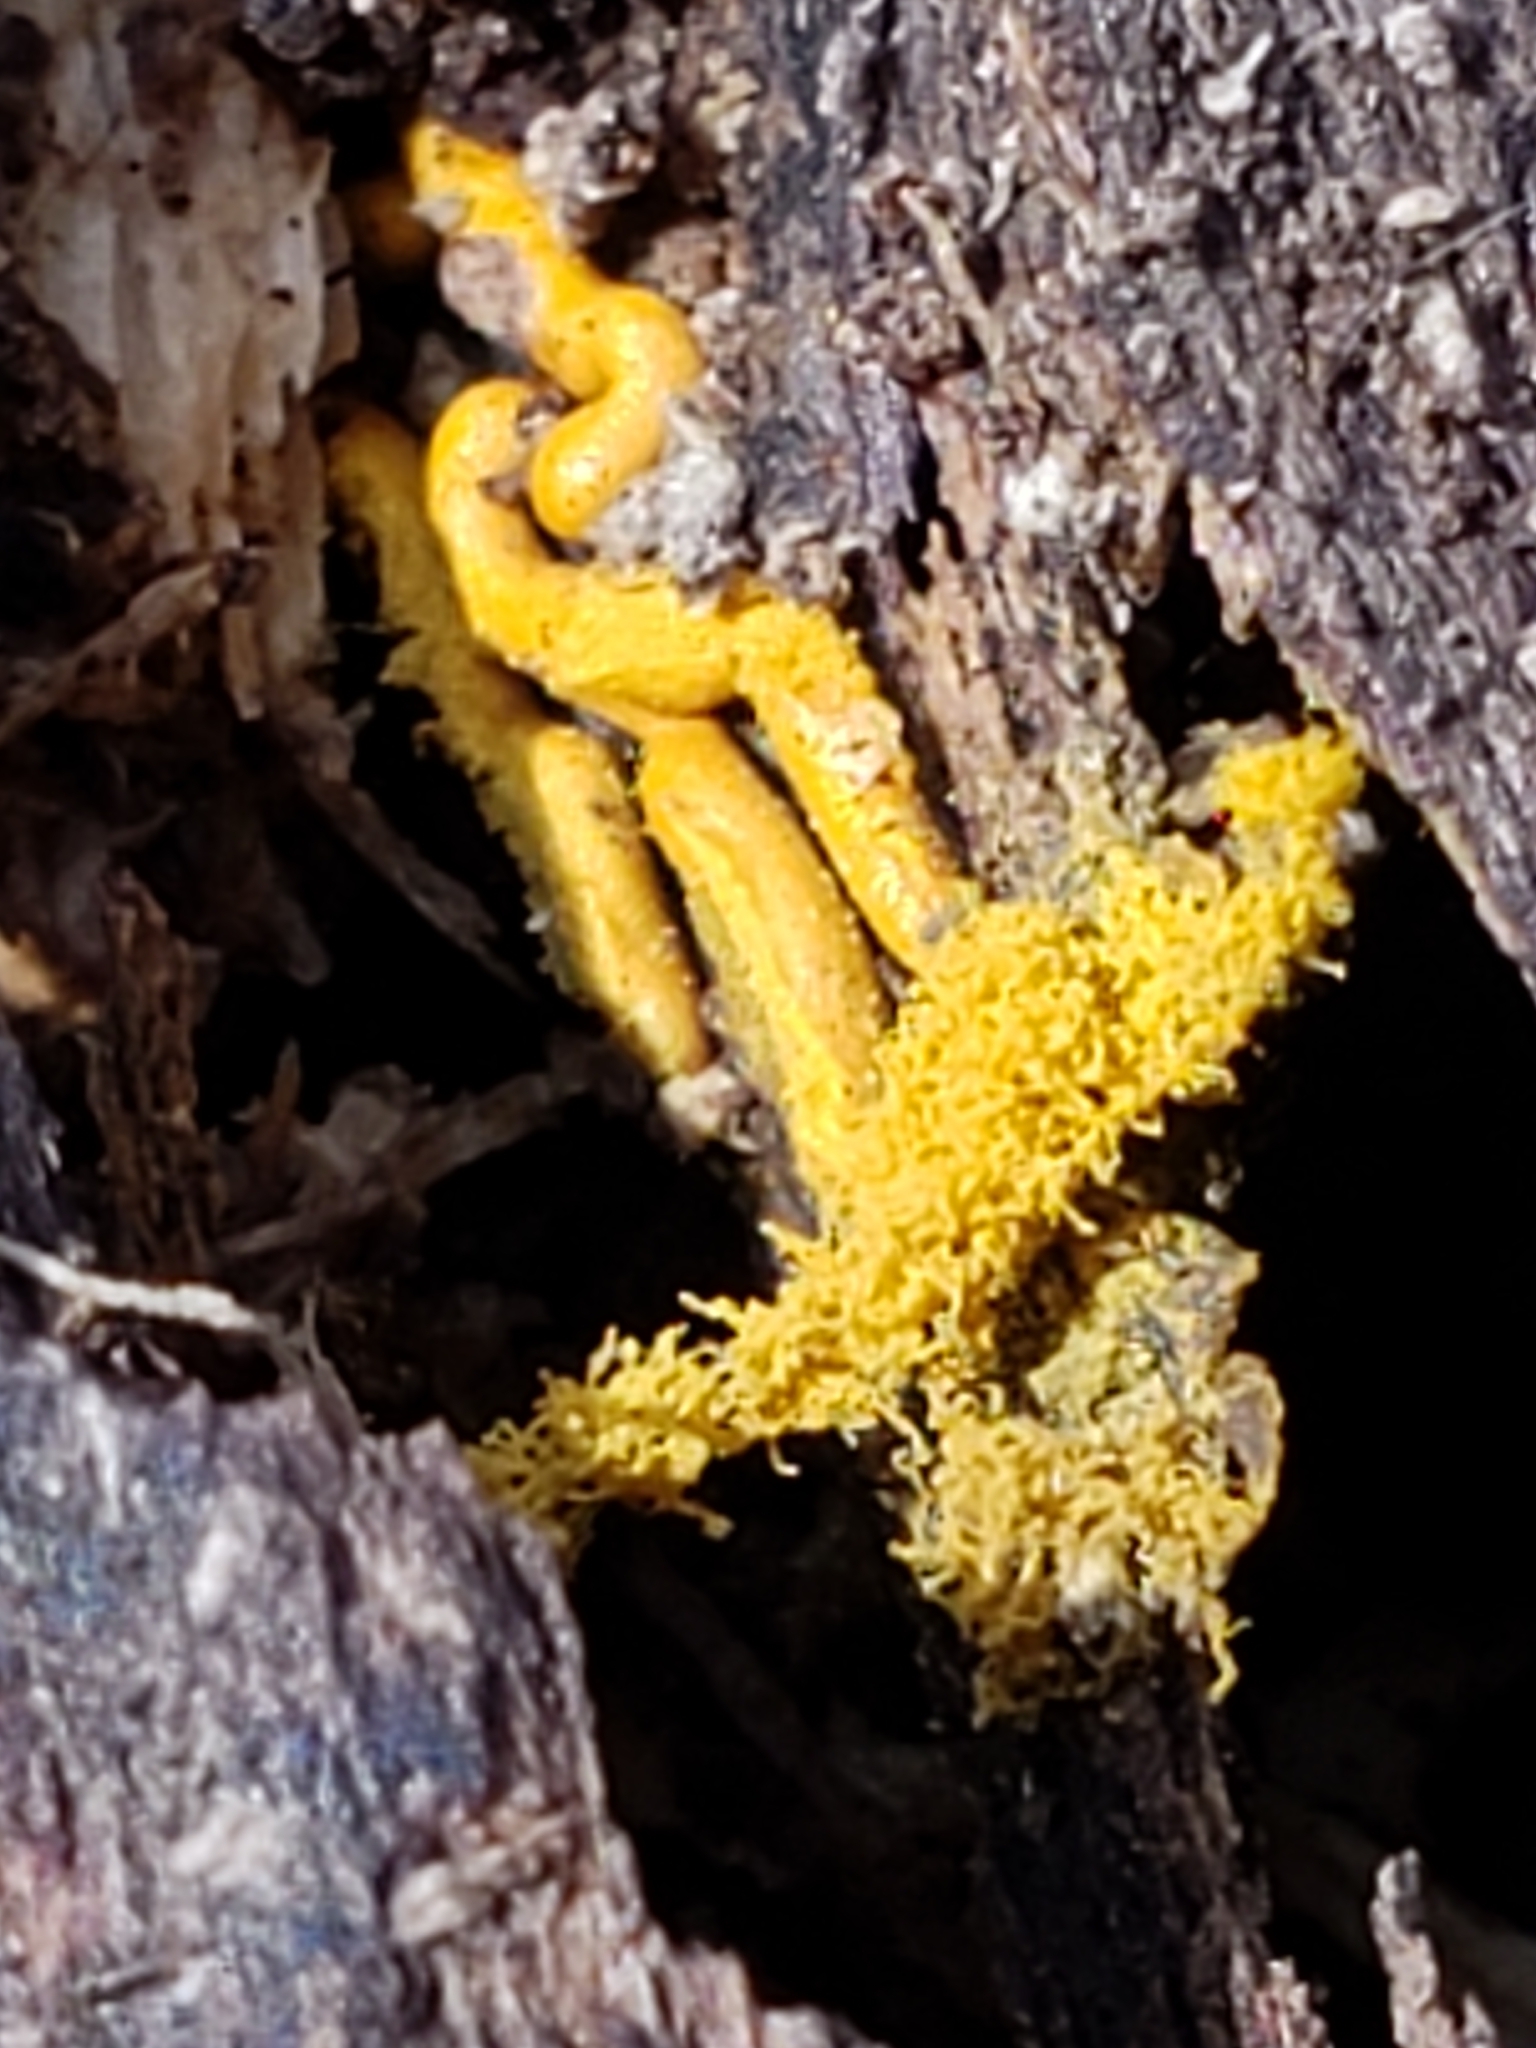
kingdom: Protozoa
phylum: Mycetozoa
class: Myxomycetes
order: Trichiales
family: Arcyriaceae
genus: Hemitrichia
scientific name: Hemitrichia serpula
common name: Pretzel slime mold
